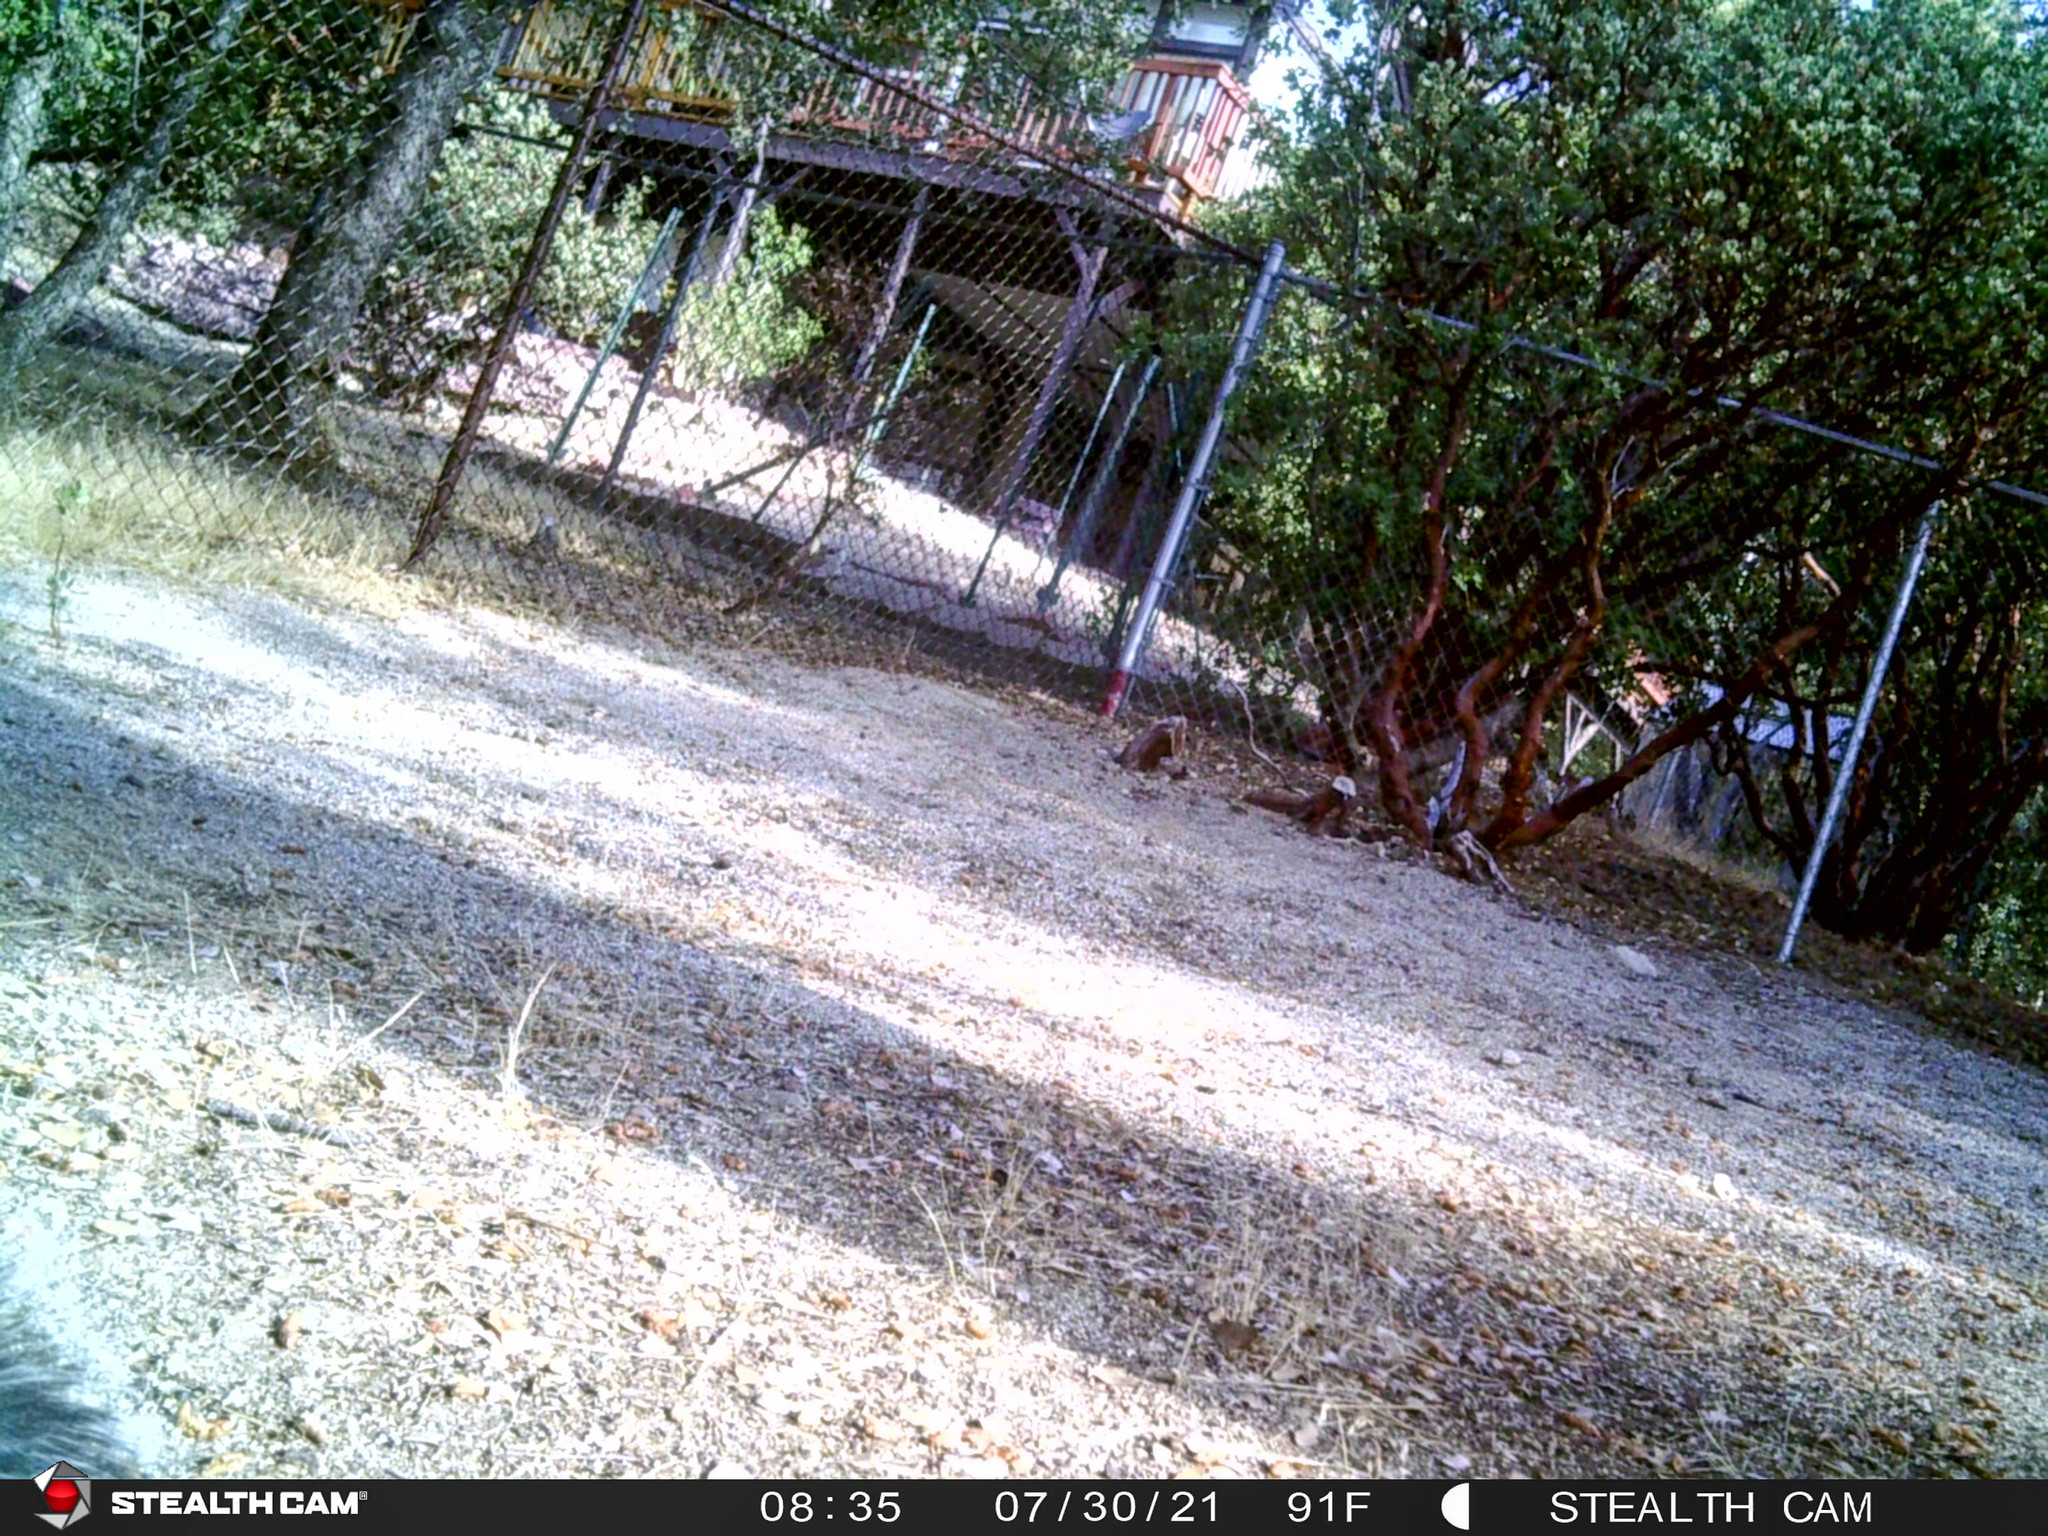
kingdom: Animalia
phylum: Chordata
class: Mammalia
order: Rodentia
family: Sciuridae
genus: Sciurus
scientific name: Sciurus griseus
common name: Western gray squirrel
